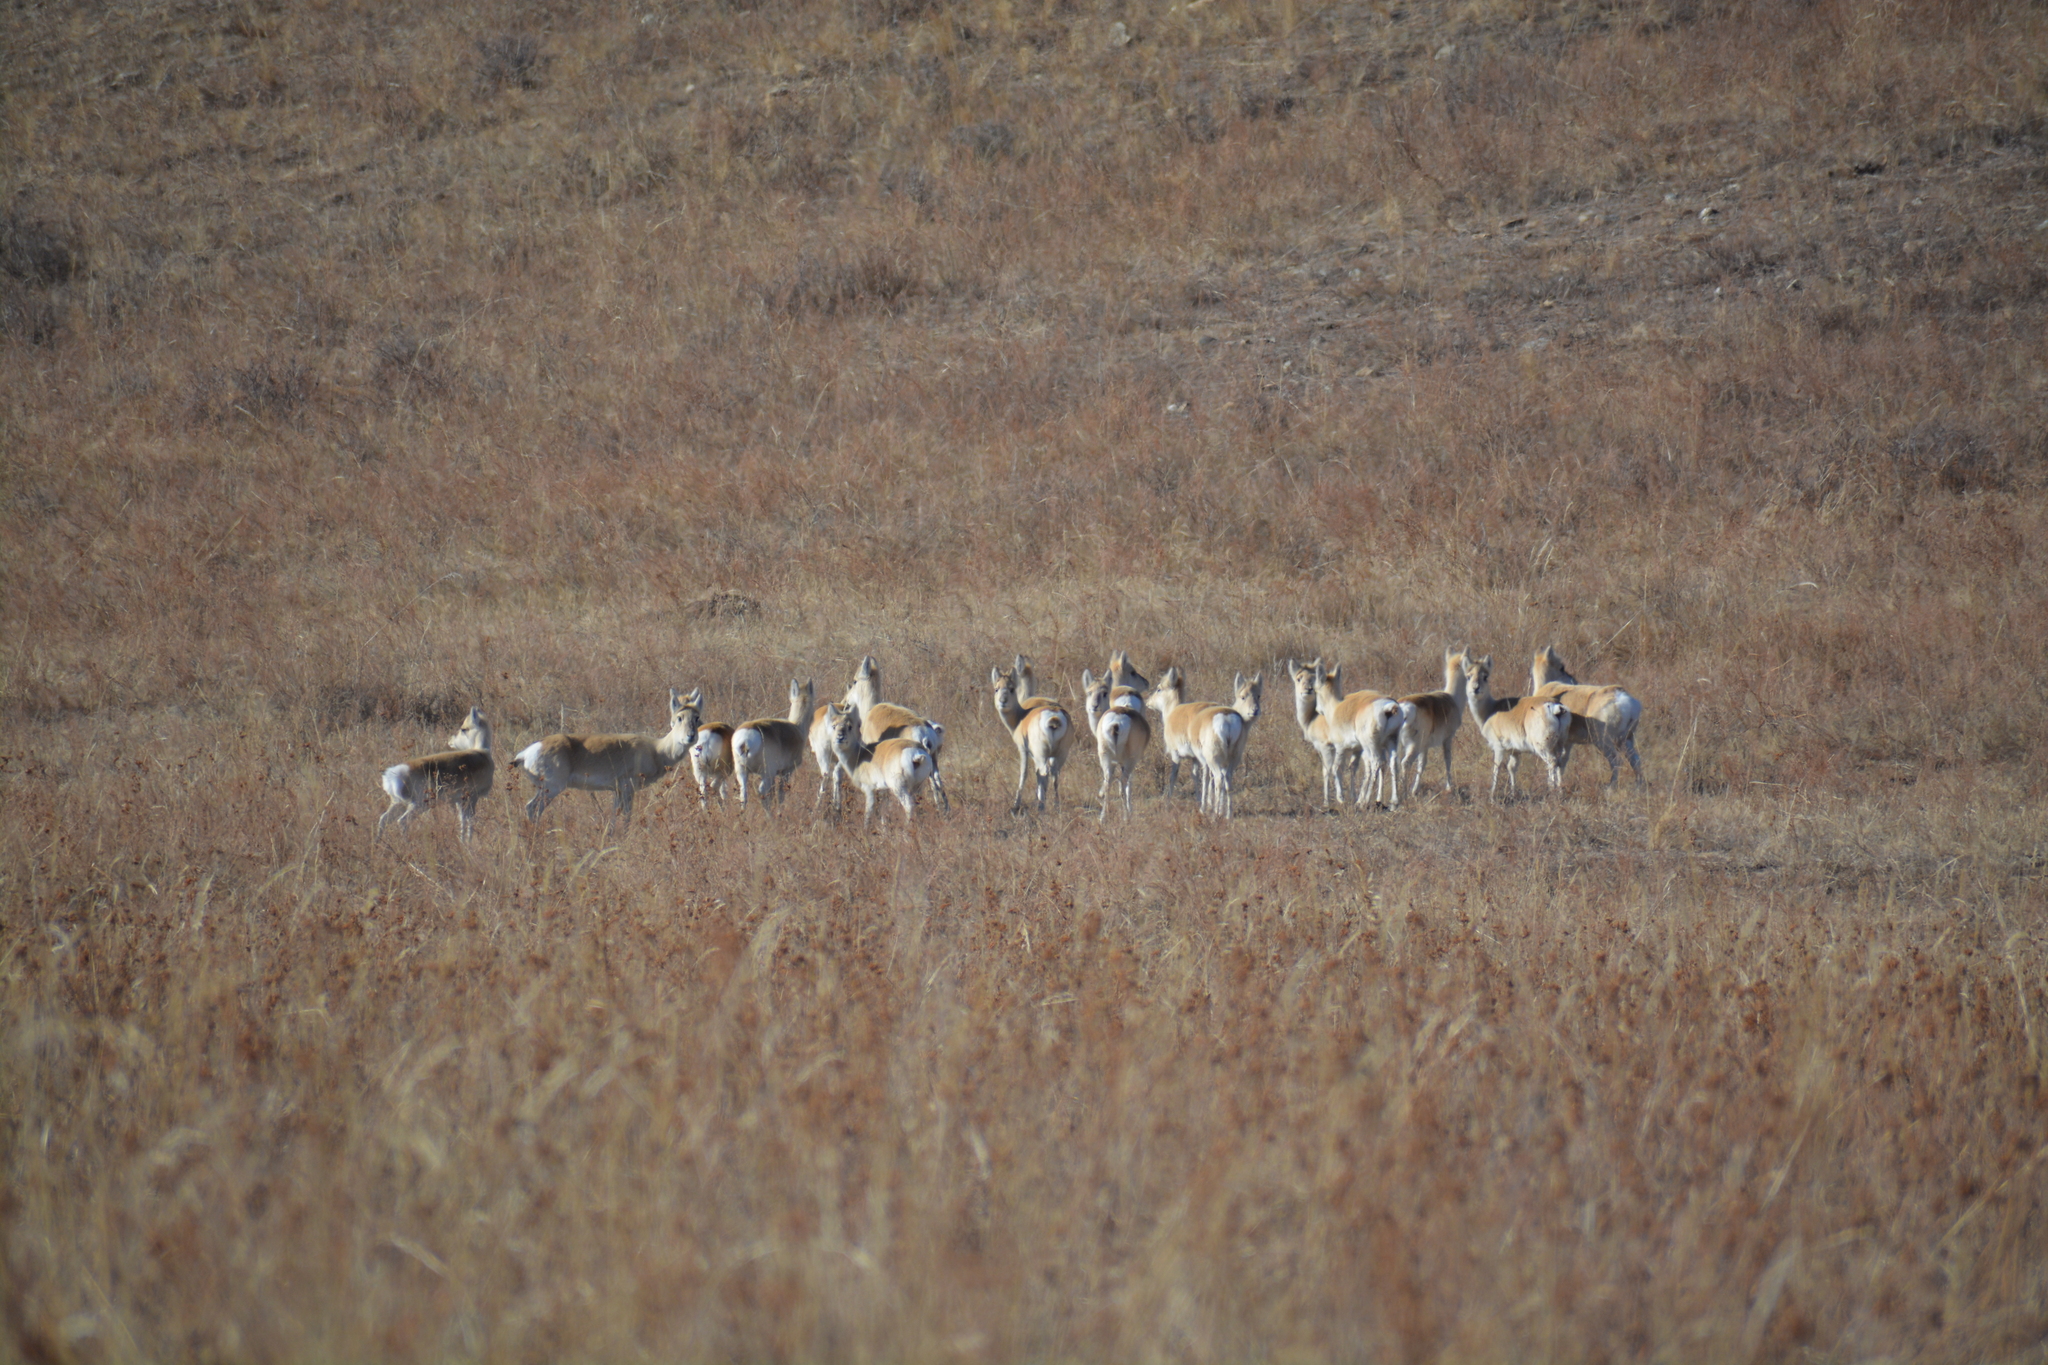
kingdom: Animalia
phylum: Chordata
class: Mammalia
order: Artiodactyla
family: Bovidae
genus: Procapra
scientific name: Procapra gutturosa
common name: Mongolian gazelle
